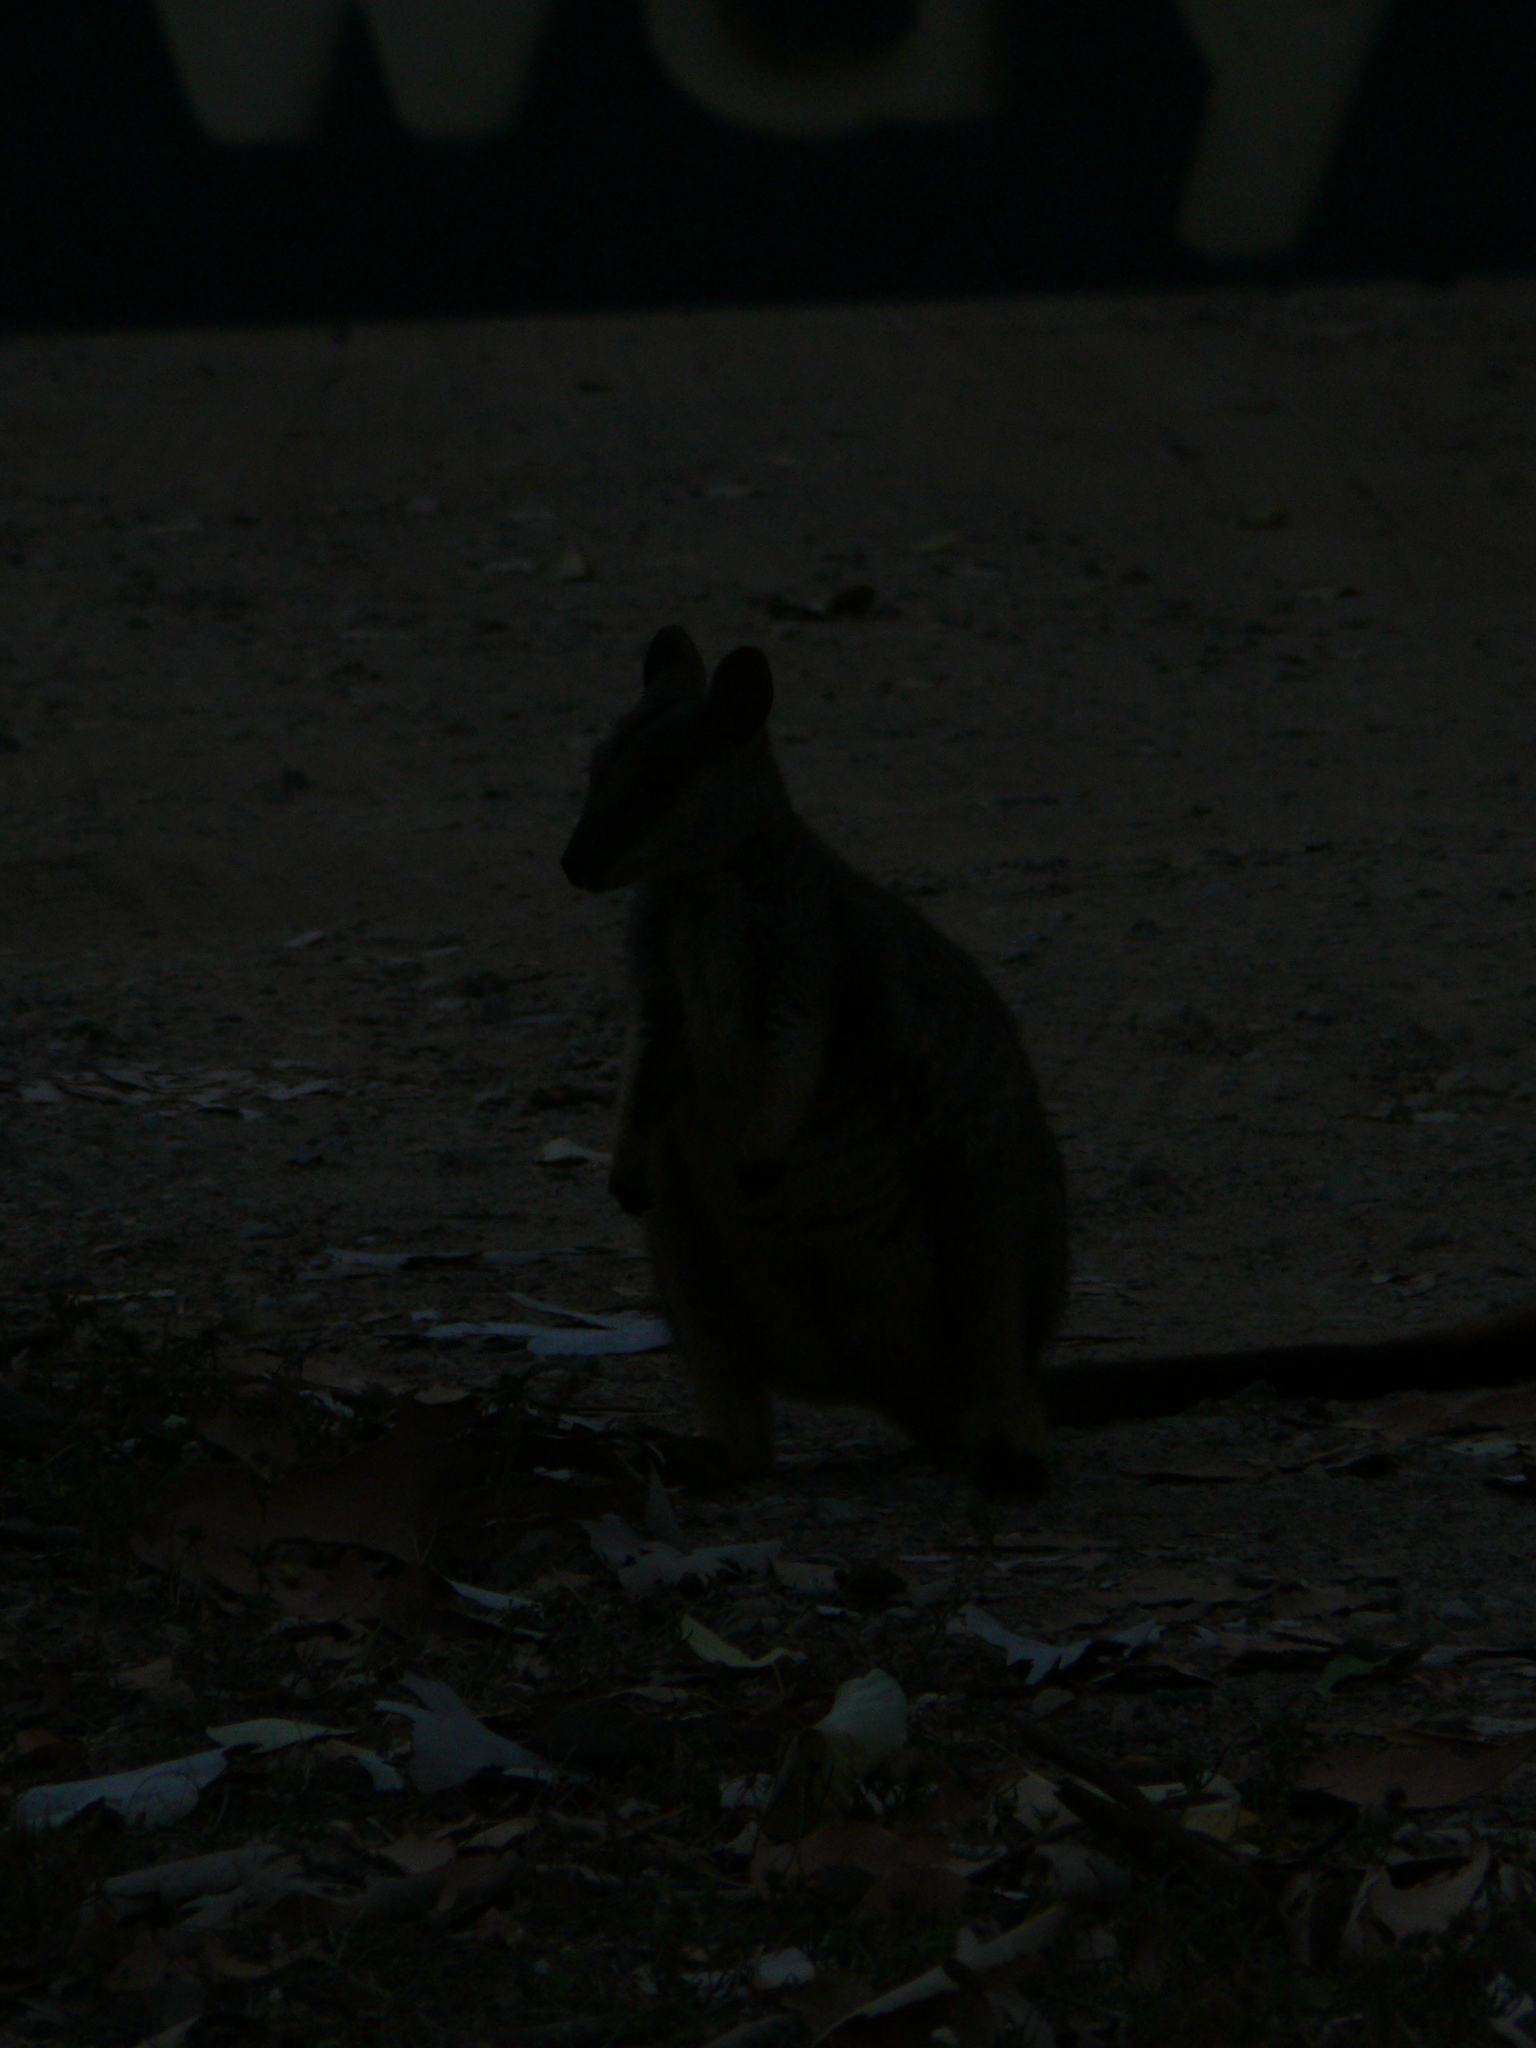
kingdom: Animalia
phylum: Chordata
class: Mammalia
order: Diprotodontia
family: Macropodidae
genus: Petrogale
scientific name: Petrogale assimilis
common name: Allied rock wallaby
